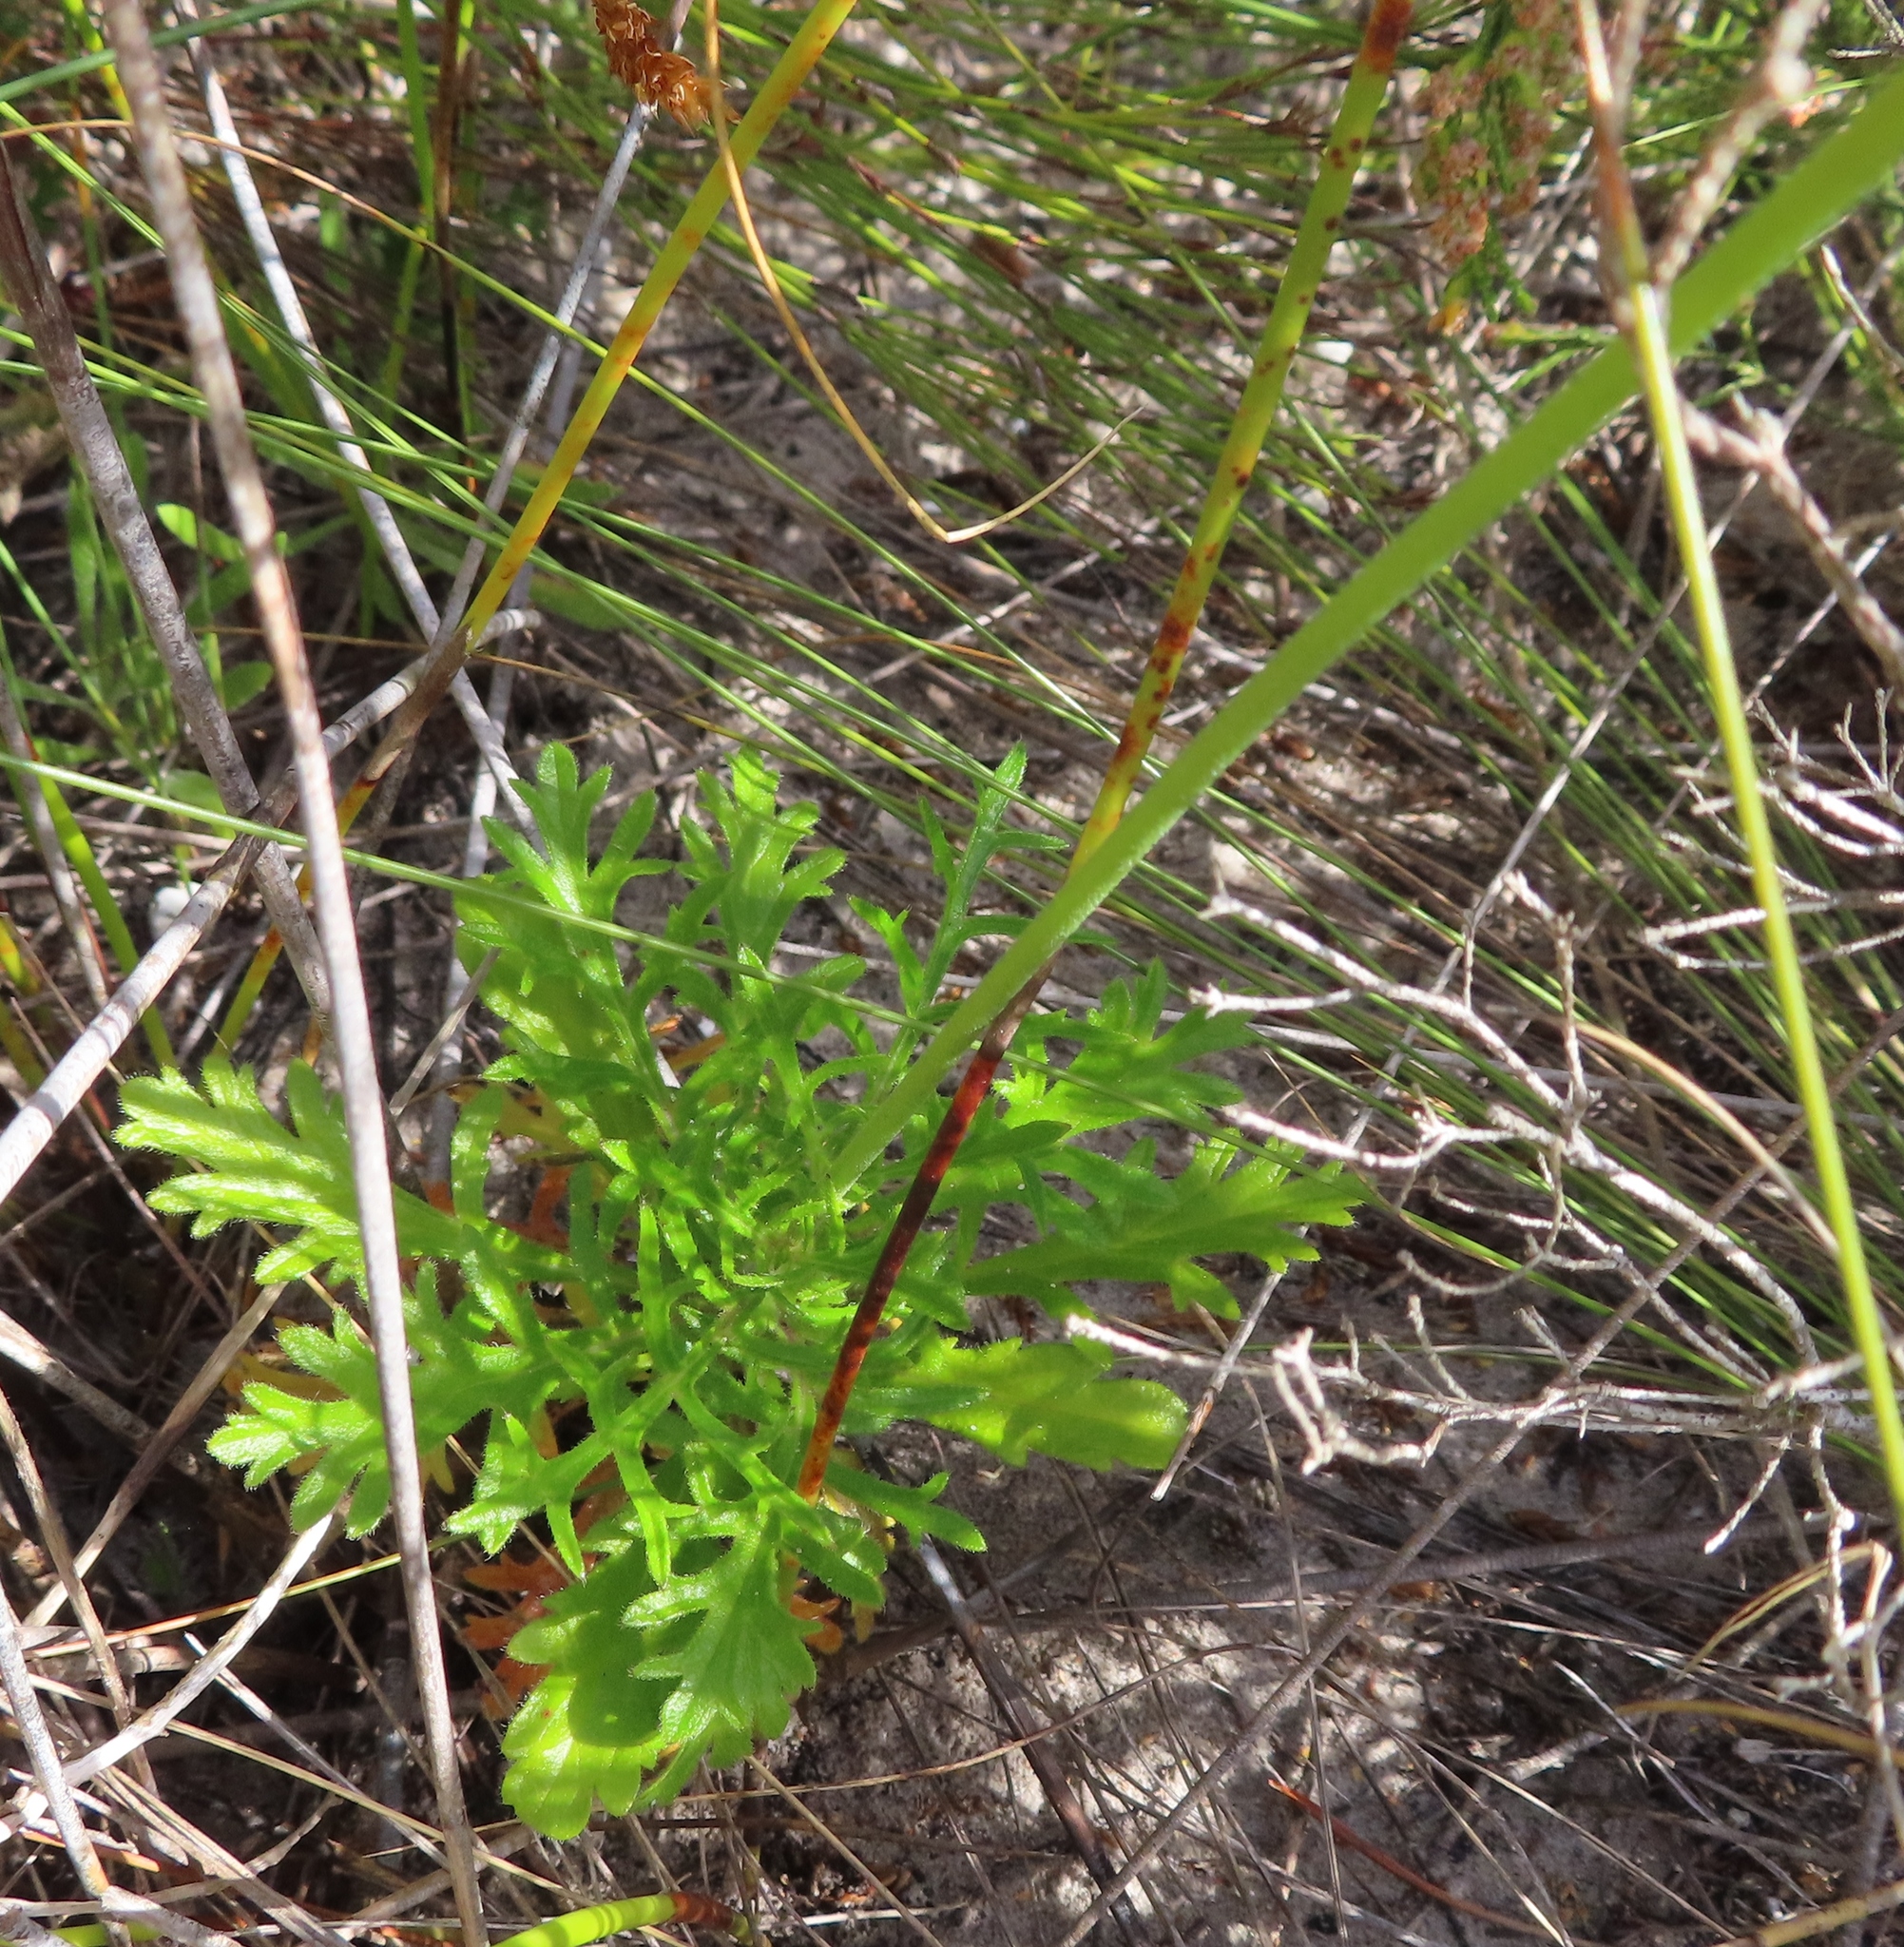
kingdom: Plantae
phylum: Tracheophyta
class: Magnoliopsida
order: Dipsacales
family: Caprifoliaceae
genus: Scabiosa
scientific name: Scabiosa columbaria
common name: Small scabious
